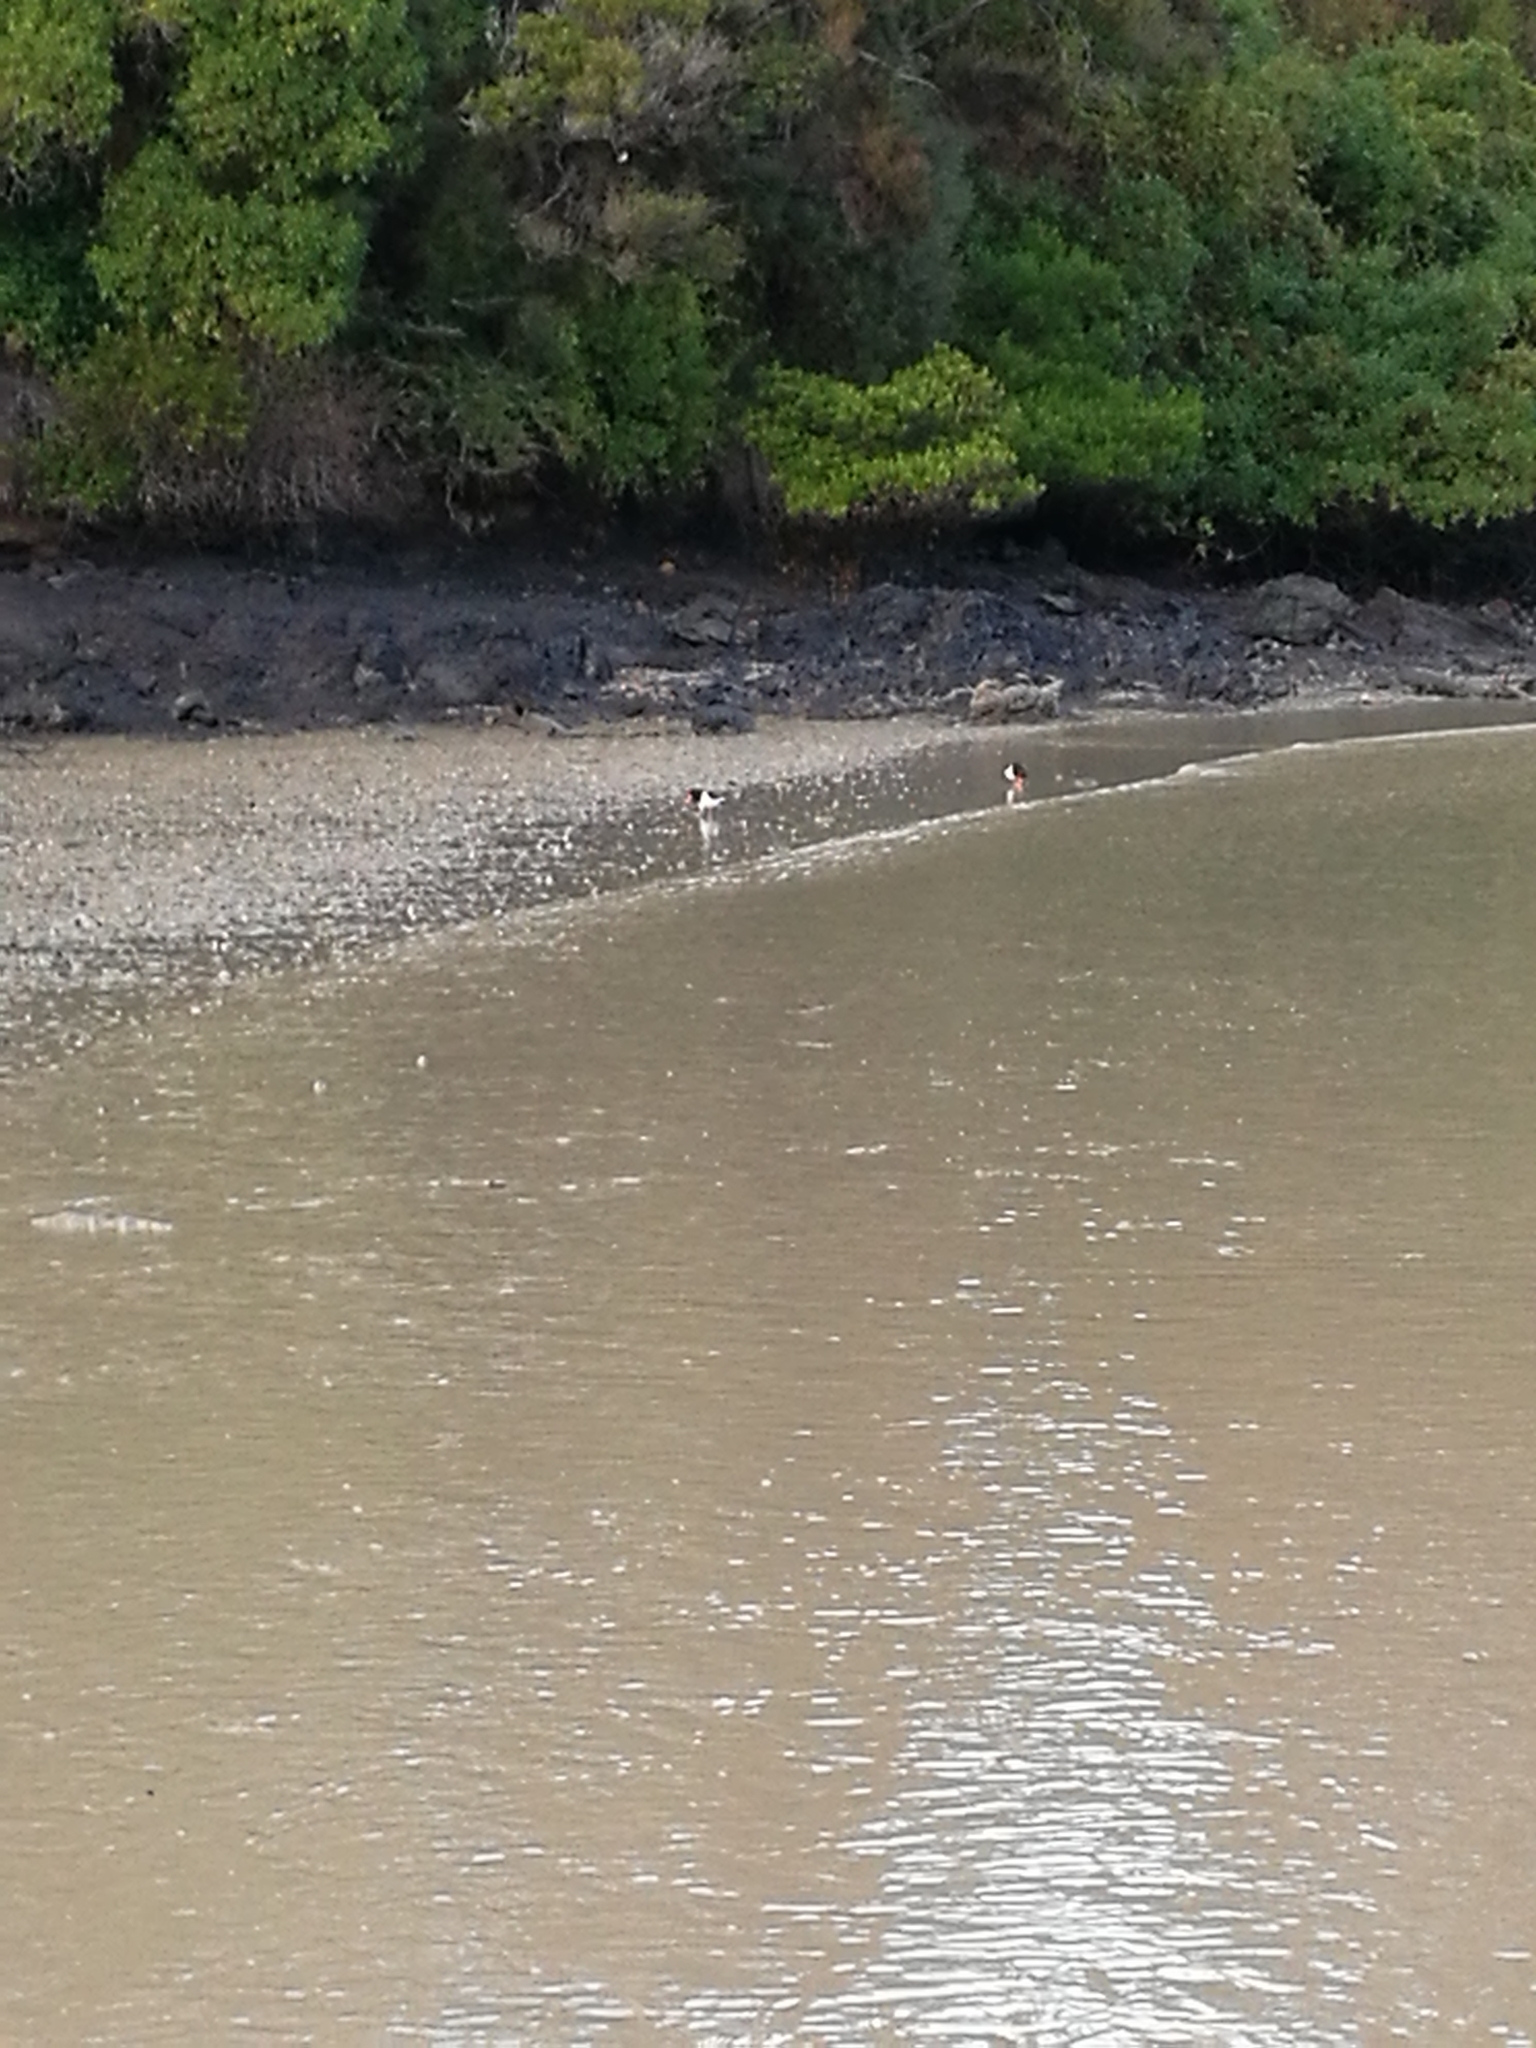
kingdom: Animalia
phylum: Chordata
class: Aves
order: Charadriiformes
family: Haematopodidae
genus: Haematopus
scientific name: Haematopus finschi
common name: South island oystercatcher
